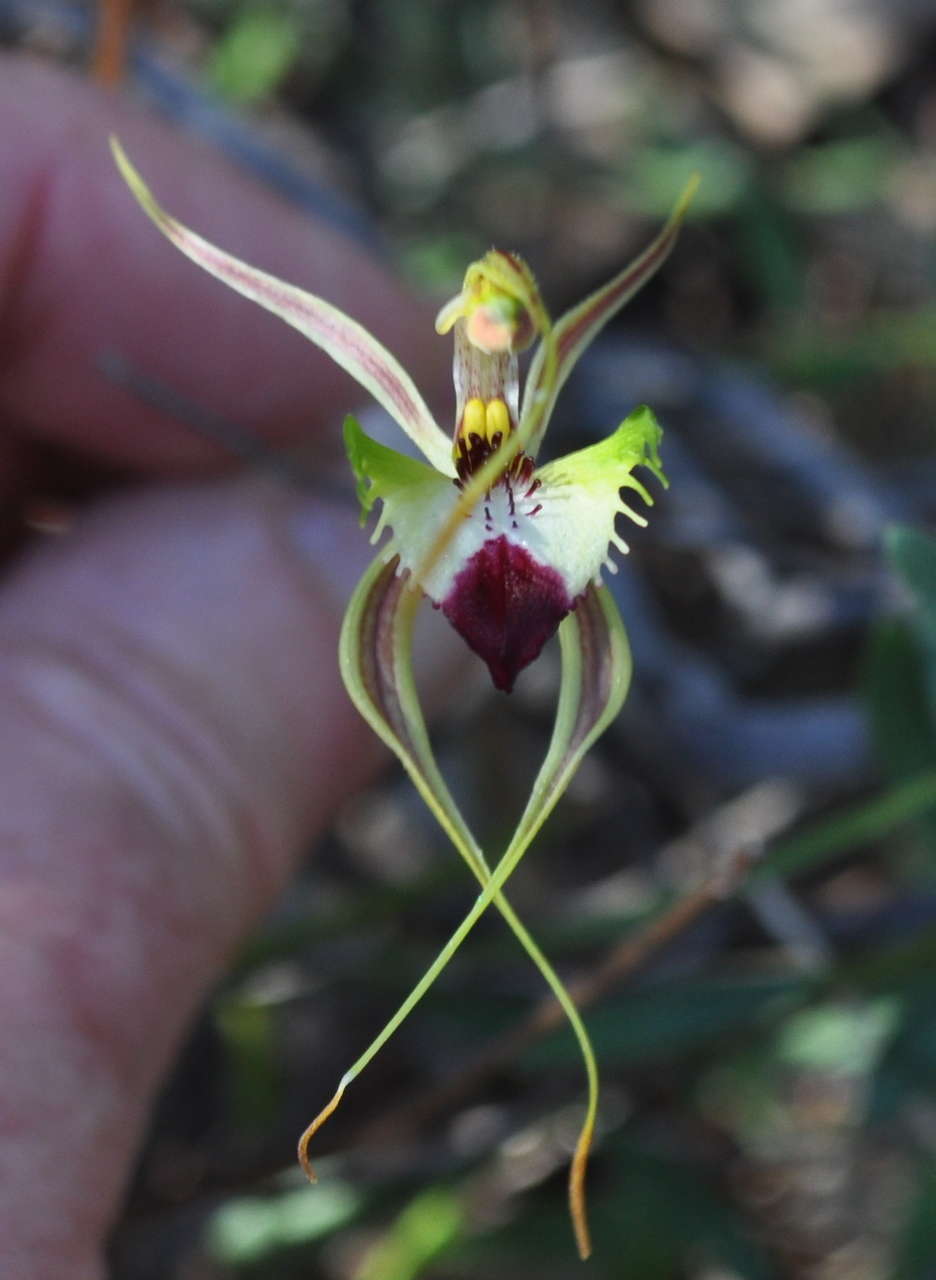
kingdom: Plantae
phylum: Tracheophyta
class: Liliopsida
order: Asparagales
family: Orchidaceae
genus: Caladenia
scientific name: Caladenia tentaculata
